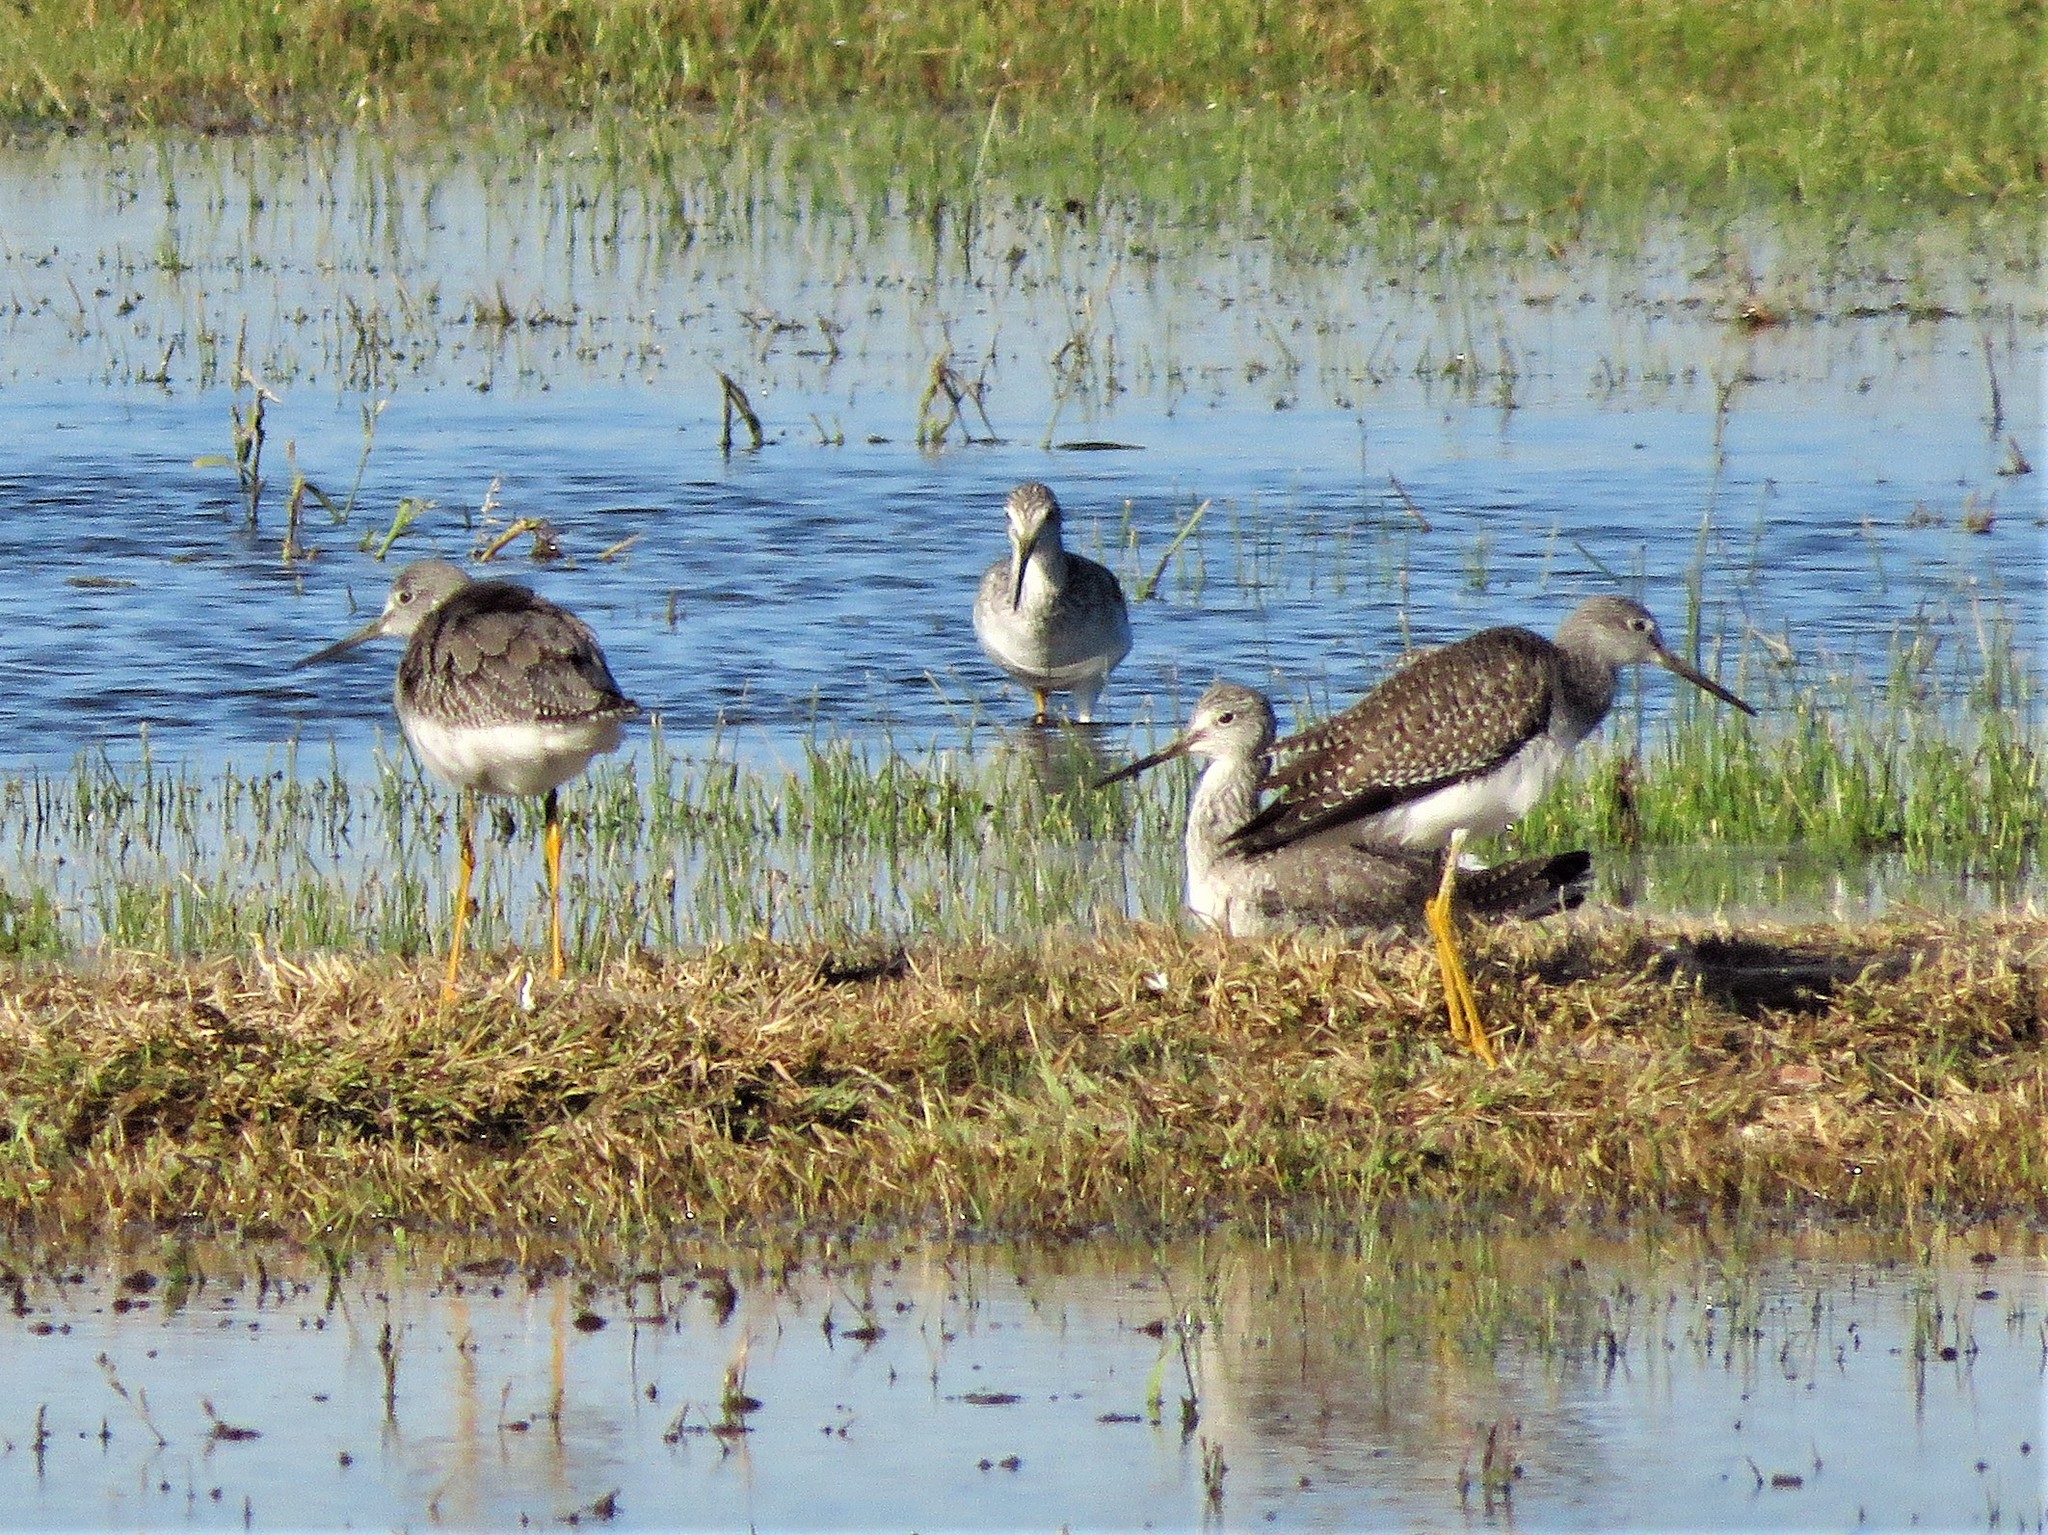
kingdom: Animalia
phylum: Chordata
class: Aves
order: Charadriiformes
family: Scolopacidae
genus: Tringa
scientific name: Tringa melanoleuca
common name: Greater yellowlegs
